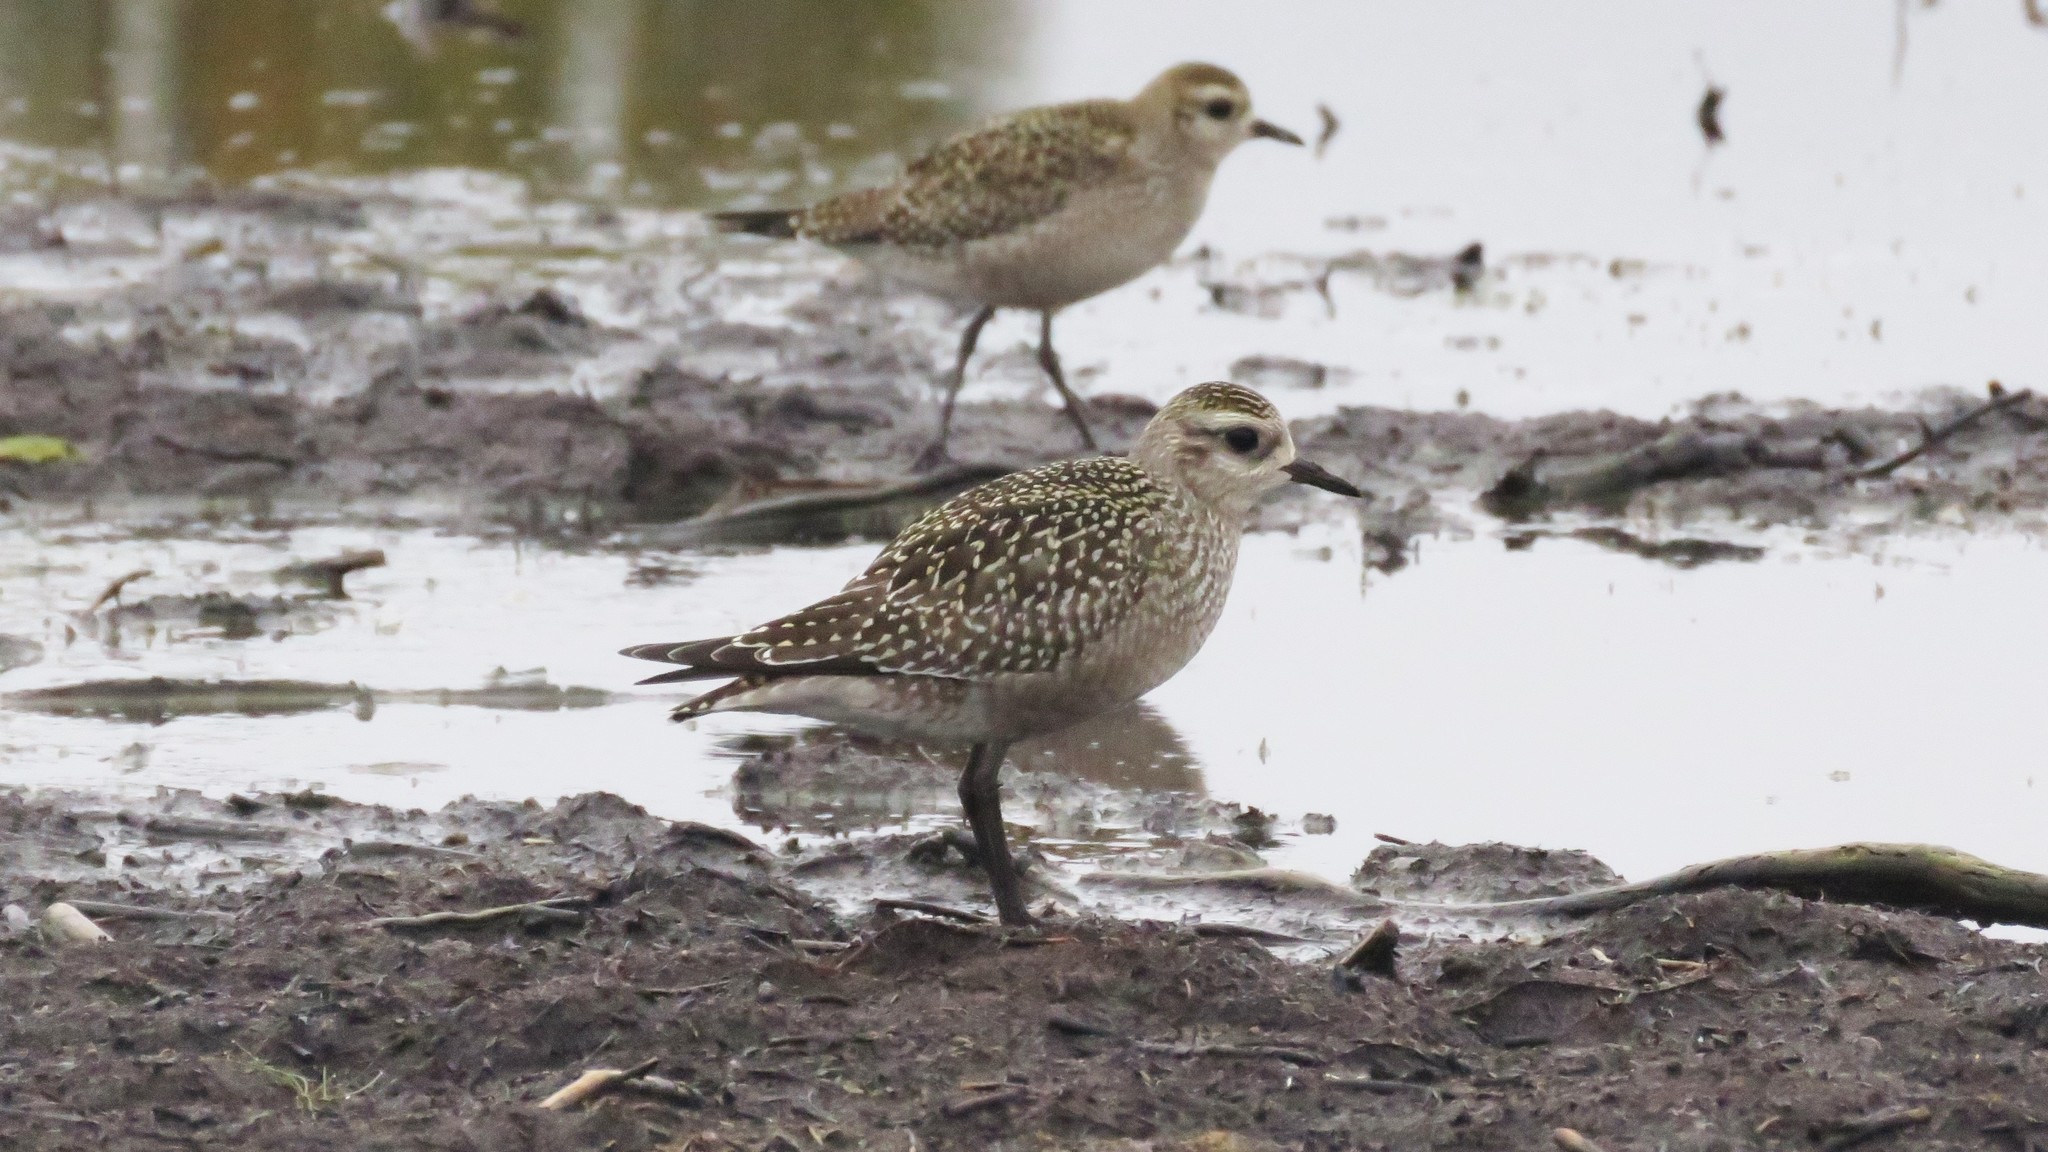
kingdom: Animalia
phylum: Chordata
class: Aves
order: Charadriiformes
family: Charadriidae
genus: Pluvialis
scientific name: Pluvialis dominica
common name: American golden plover
